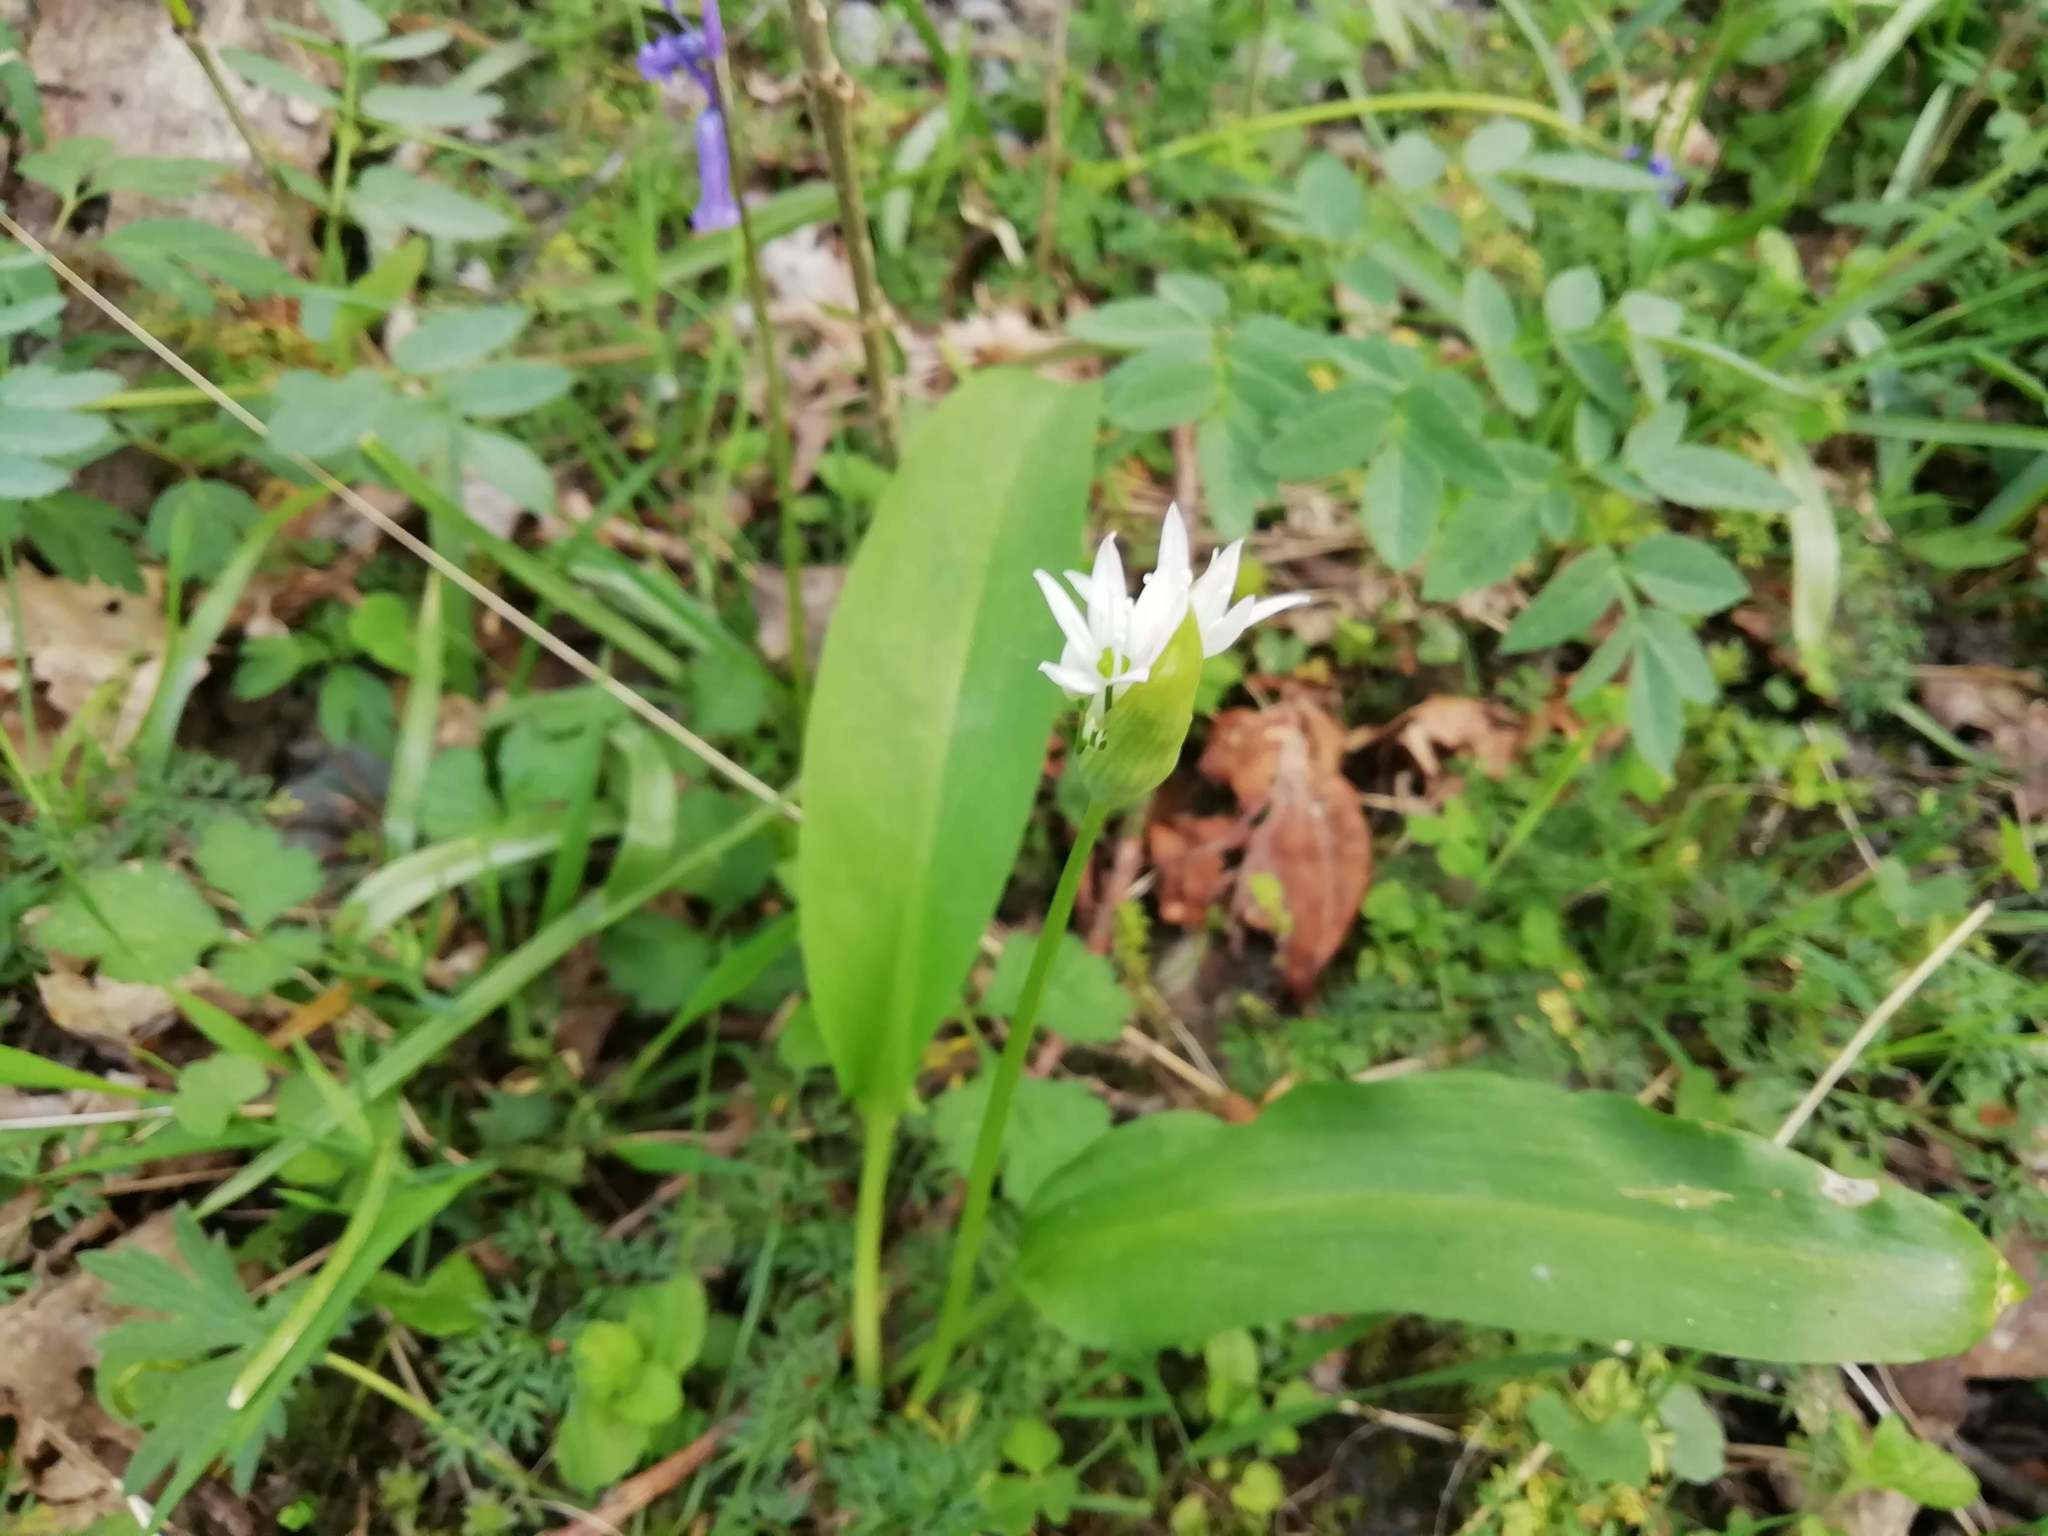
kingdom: Plantae
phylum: Tracheophyta
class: Liliopsida
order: Asparagales
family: Amaryllidaceae
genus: Allium
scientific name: Allium ursinum
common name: Ramsons
